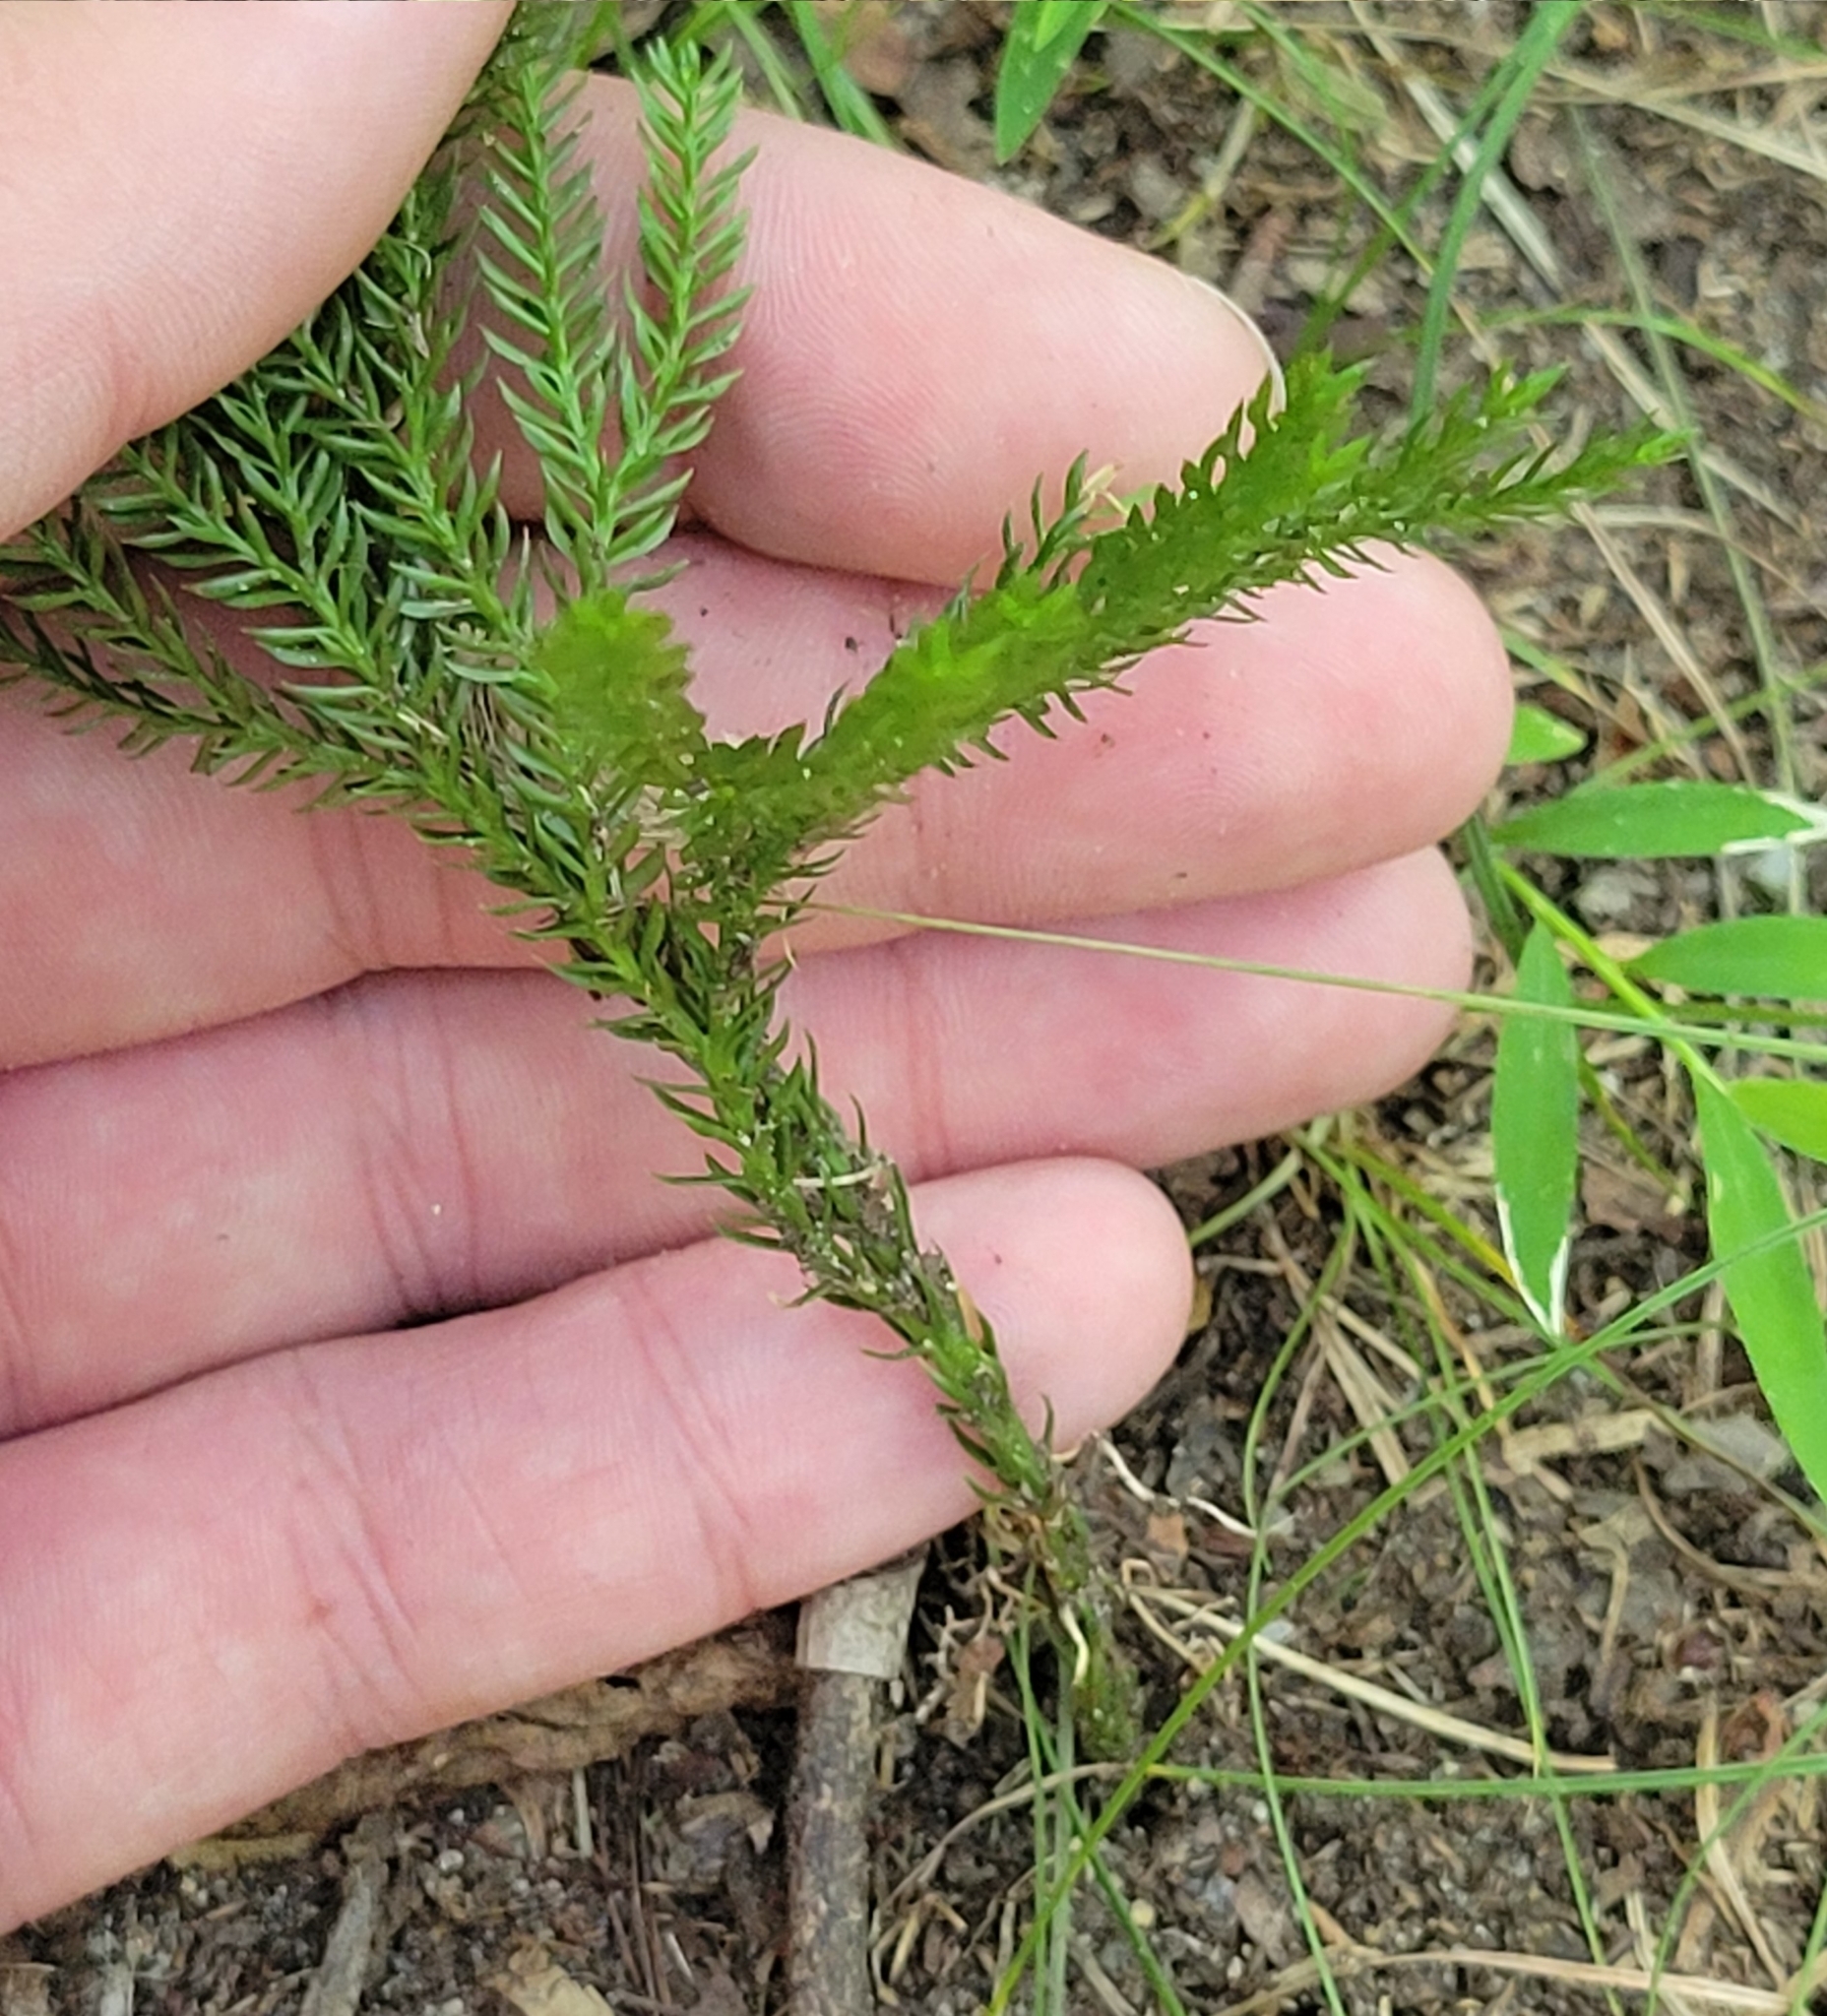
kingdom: Plantae
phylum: Tracheophyta
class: Lycopodiopsida
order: Lycopodiales
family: Lycopodiaceae
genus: Dendrolycopodium
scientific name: Dendrolycopodium obscurum
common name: Common ground-pine
